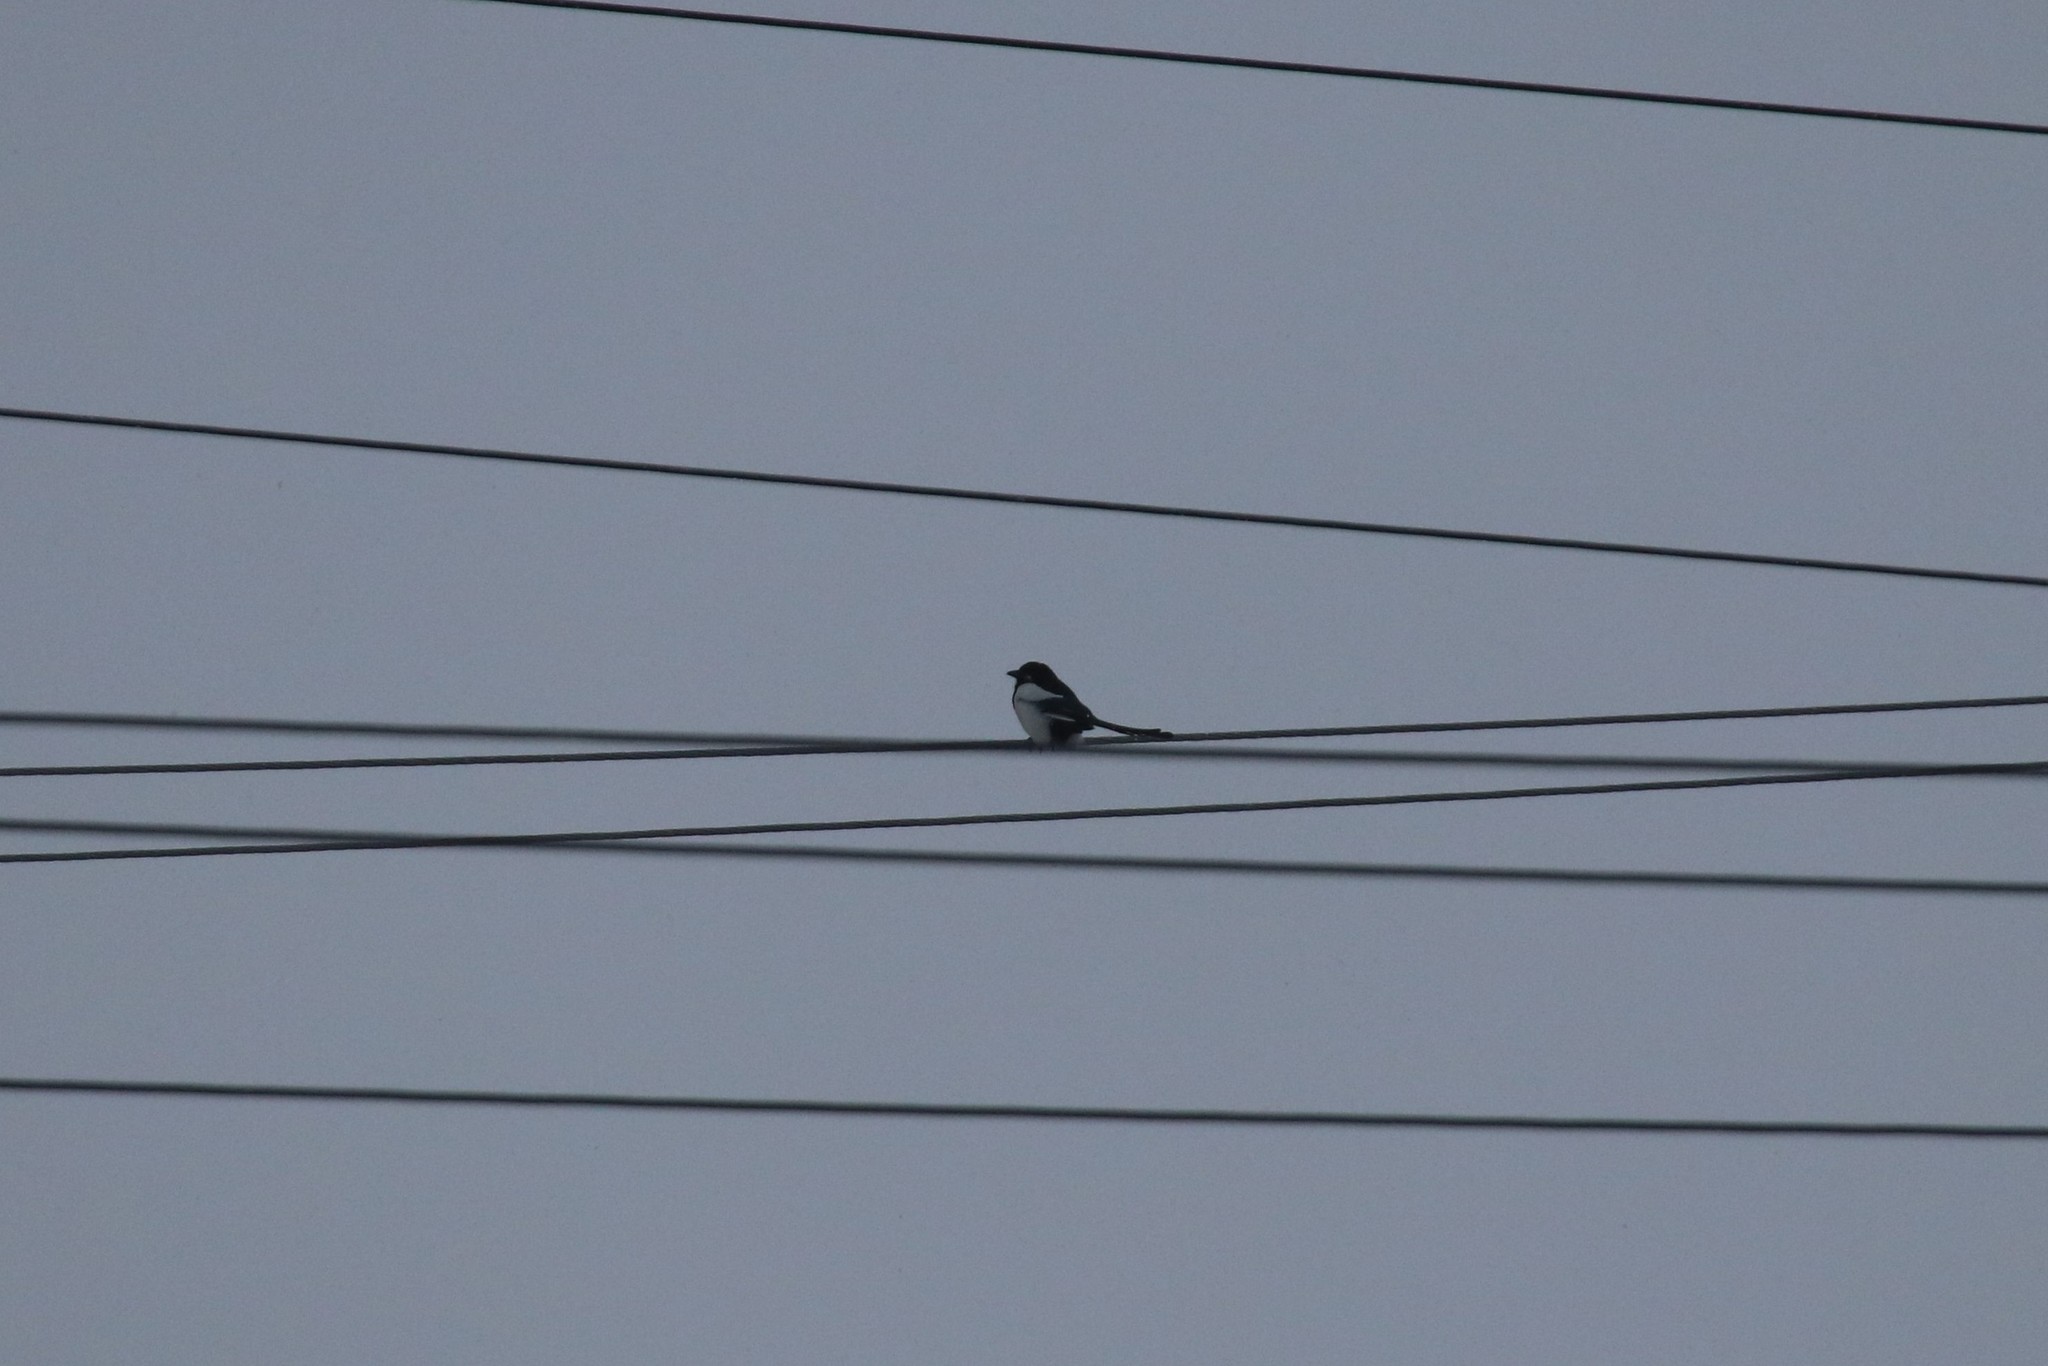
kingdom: Animalia
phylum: Chordata
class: Aves
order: Passeriformes
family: Corvidae
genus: Pica
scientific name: Pica pica
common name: Eurasian magpie
